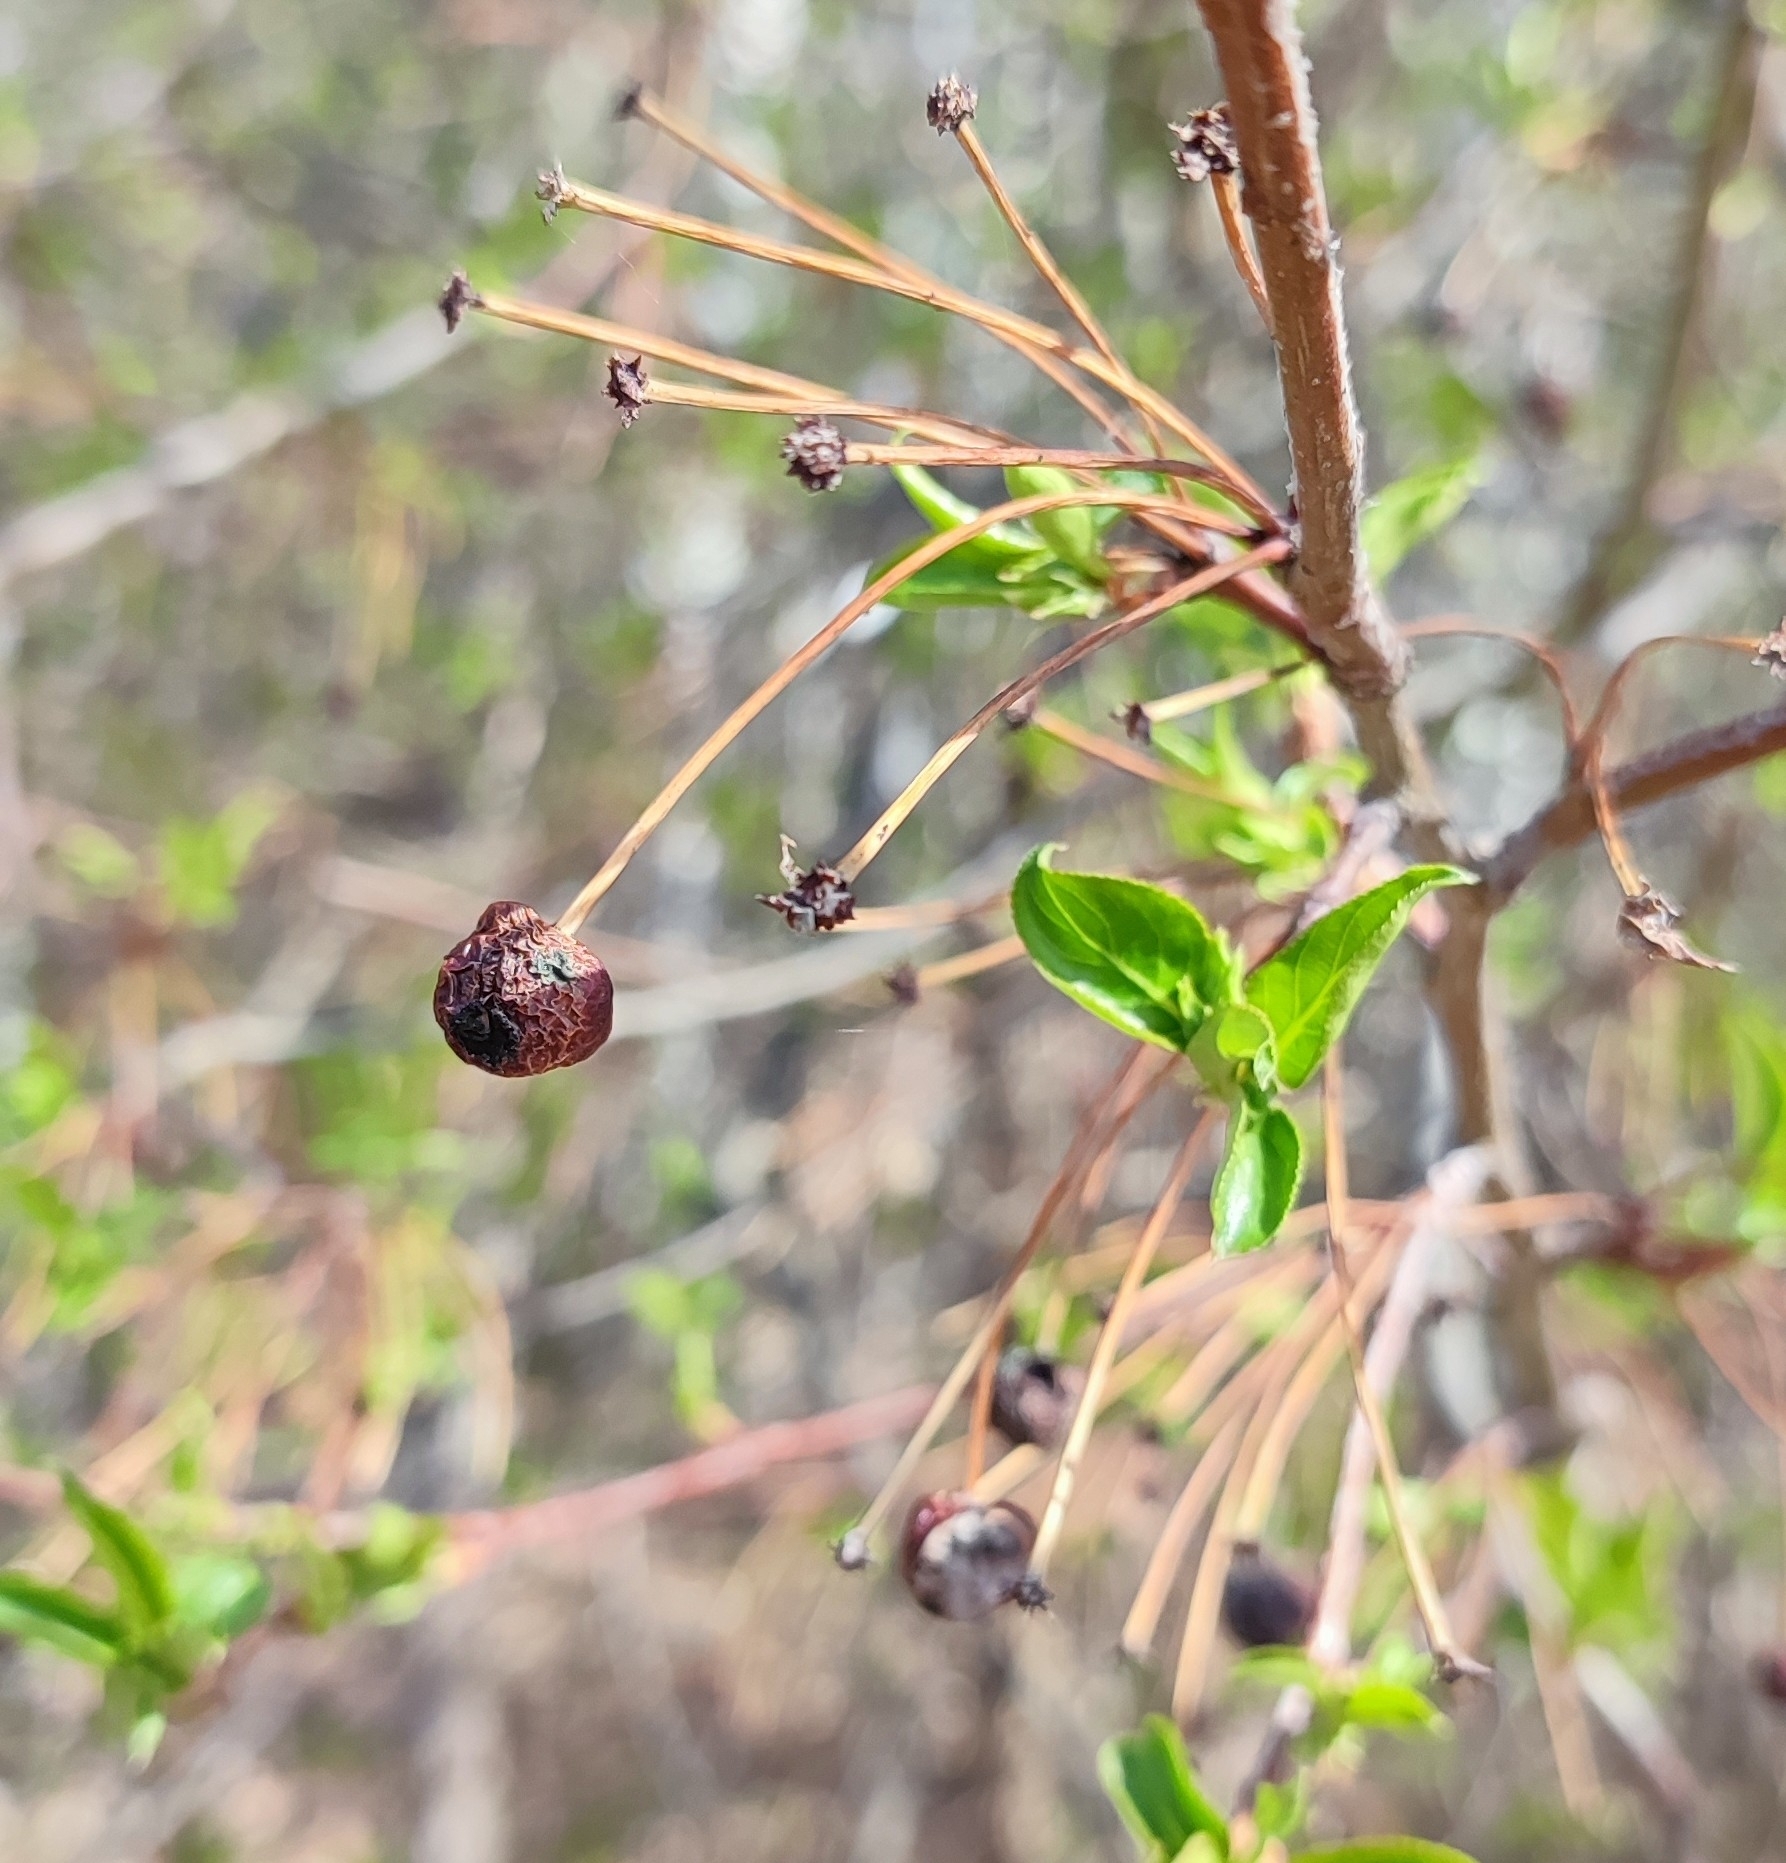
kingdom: Plantae
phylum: Tracheophyta
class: Magnoliopsida
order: Rosales
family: Rosaceae
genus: Malus
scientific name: Malus baccata
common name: Siberian crab
